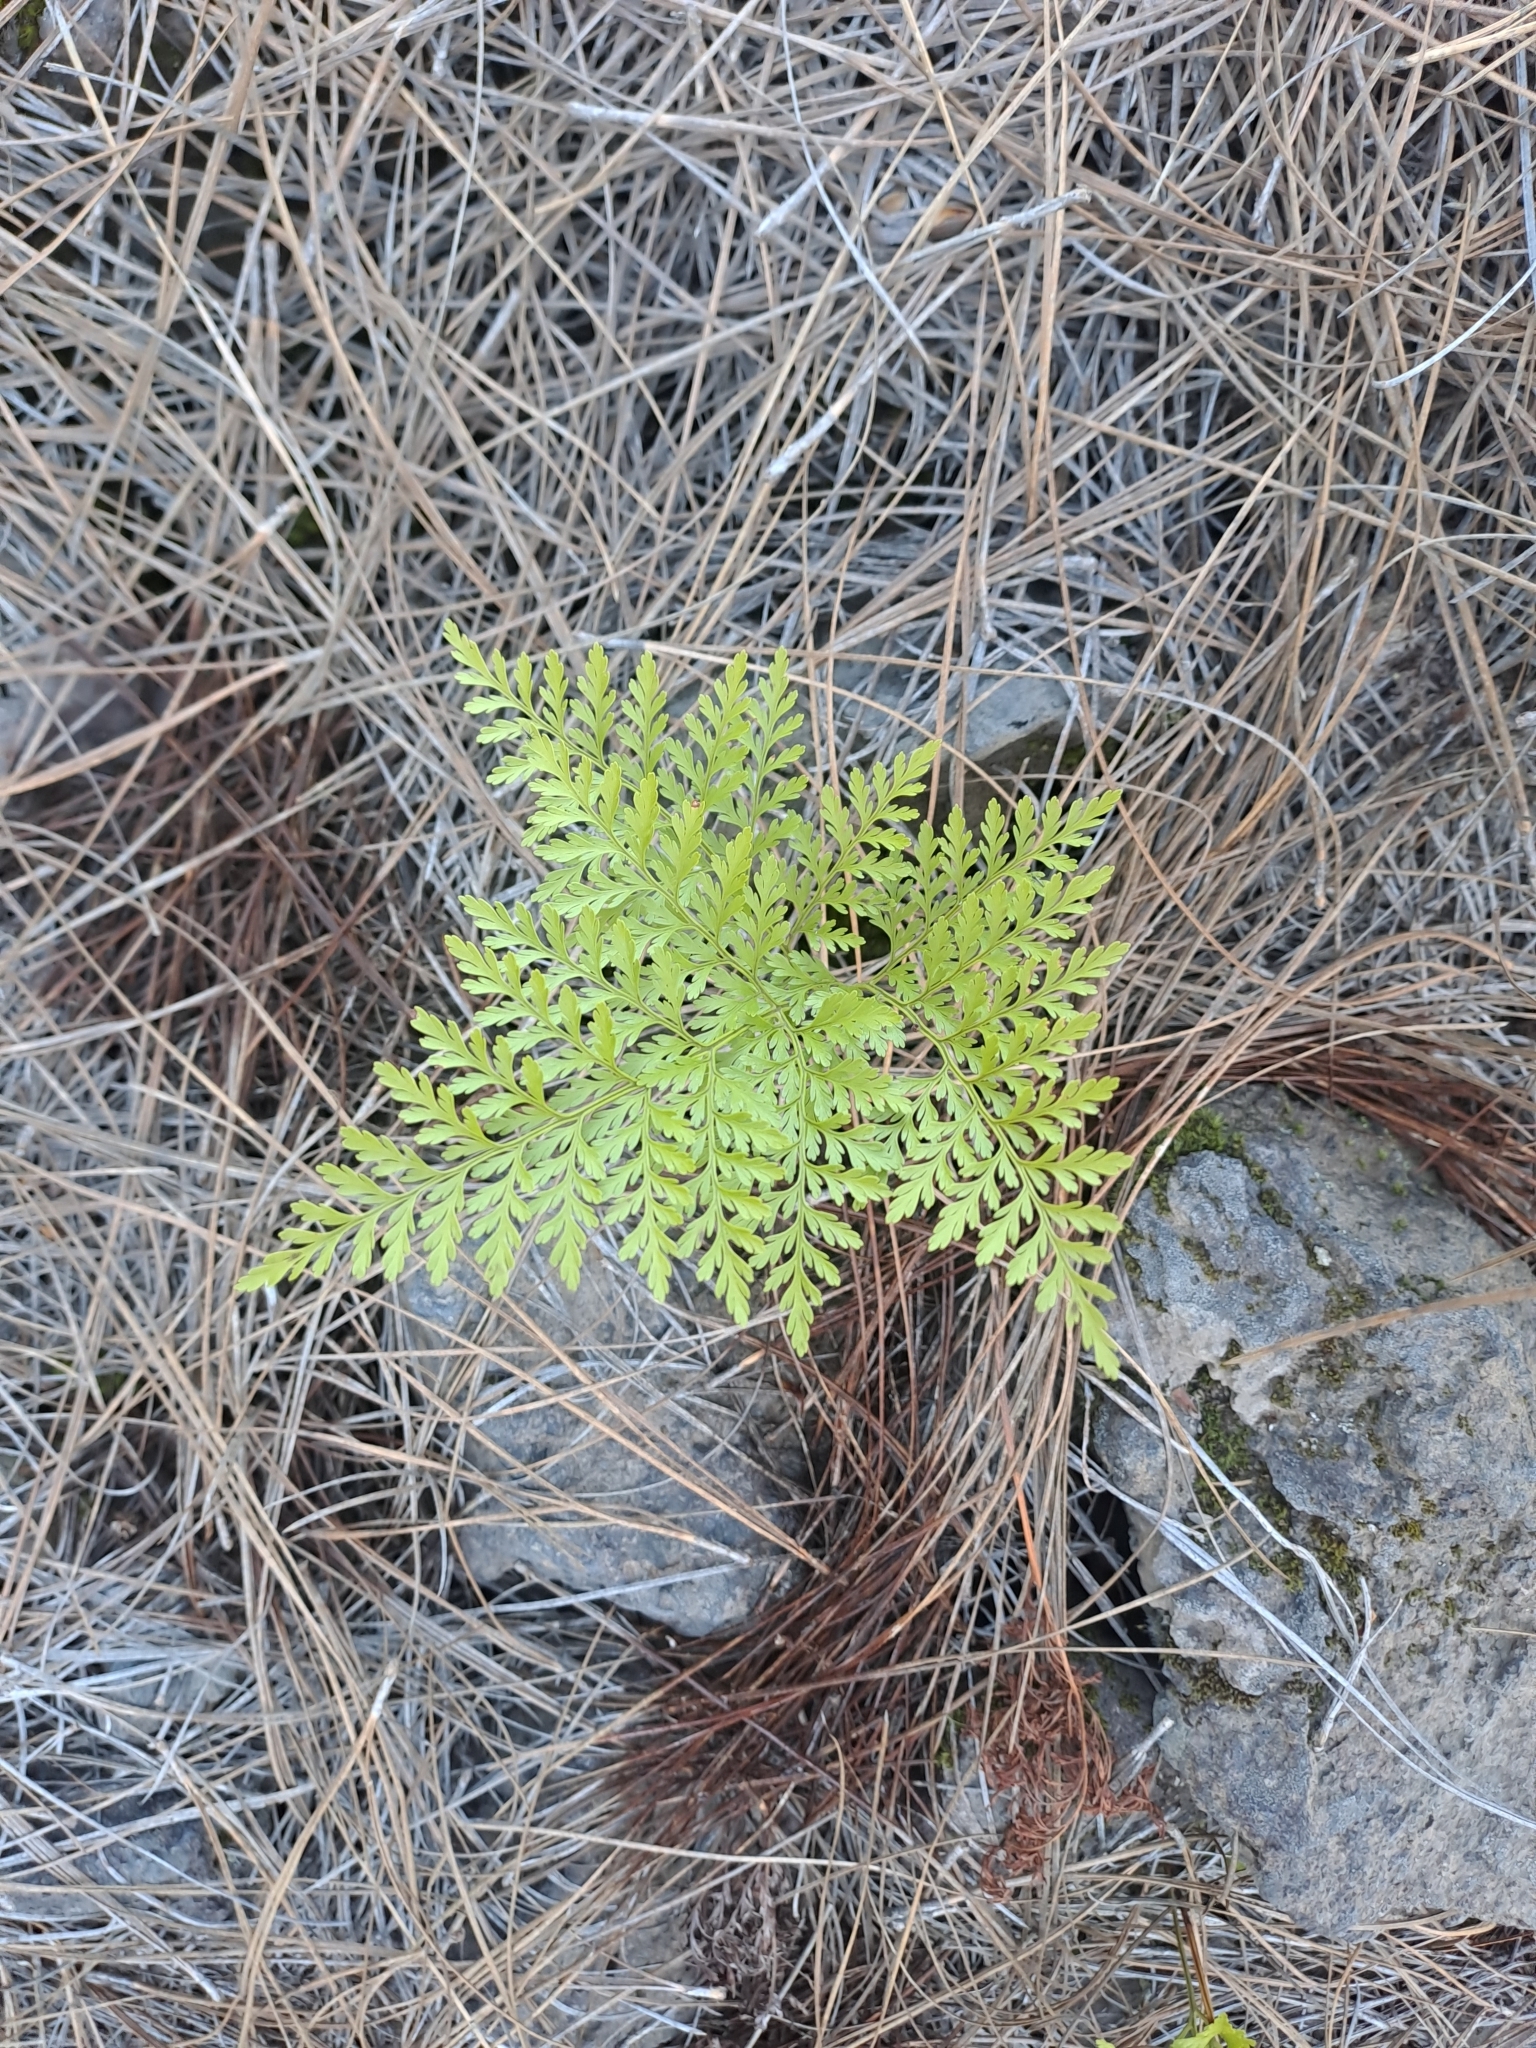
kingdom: Plantae
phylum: Tracheophyta
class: Polypodiopsida
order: Polypodiales
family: Davalliaceae
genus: Davallia
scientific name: Davallia canariensis
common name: Hare's-foot fern
